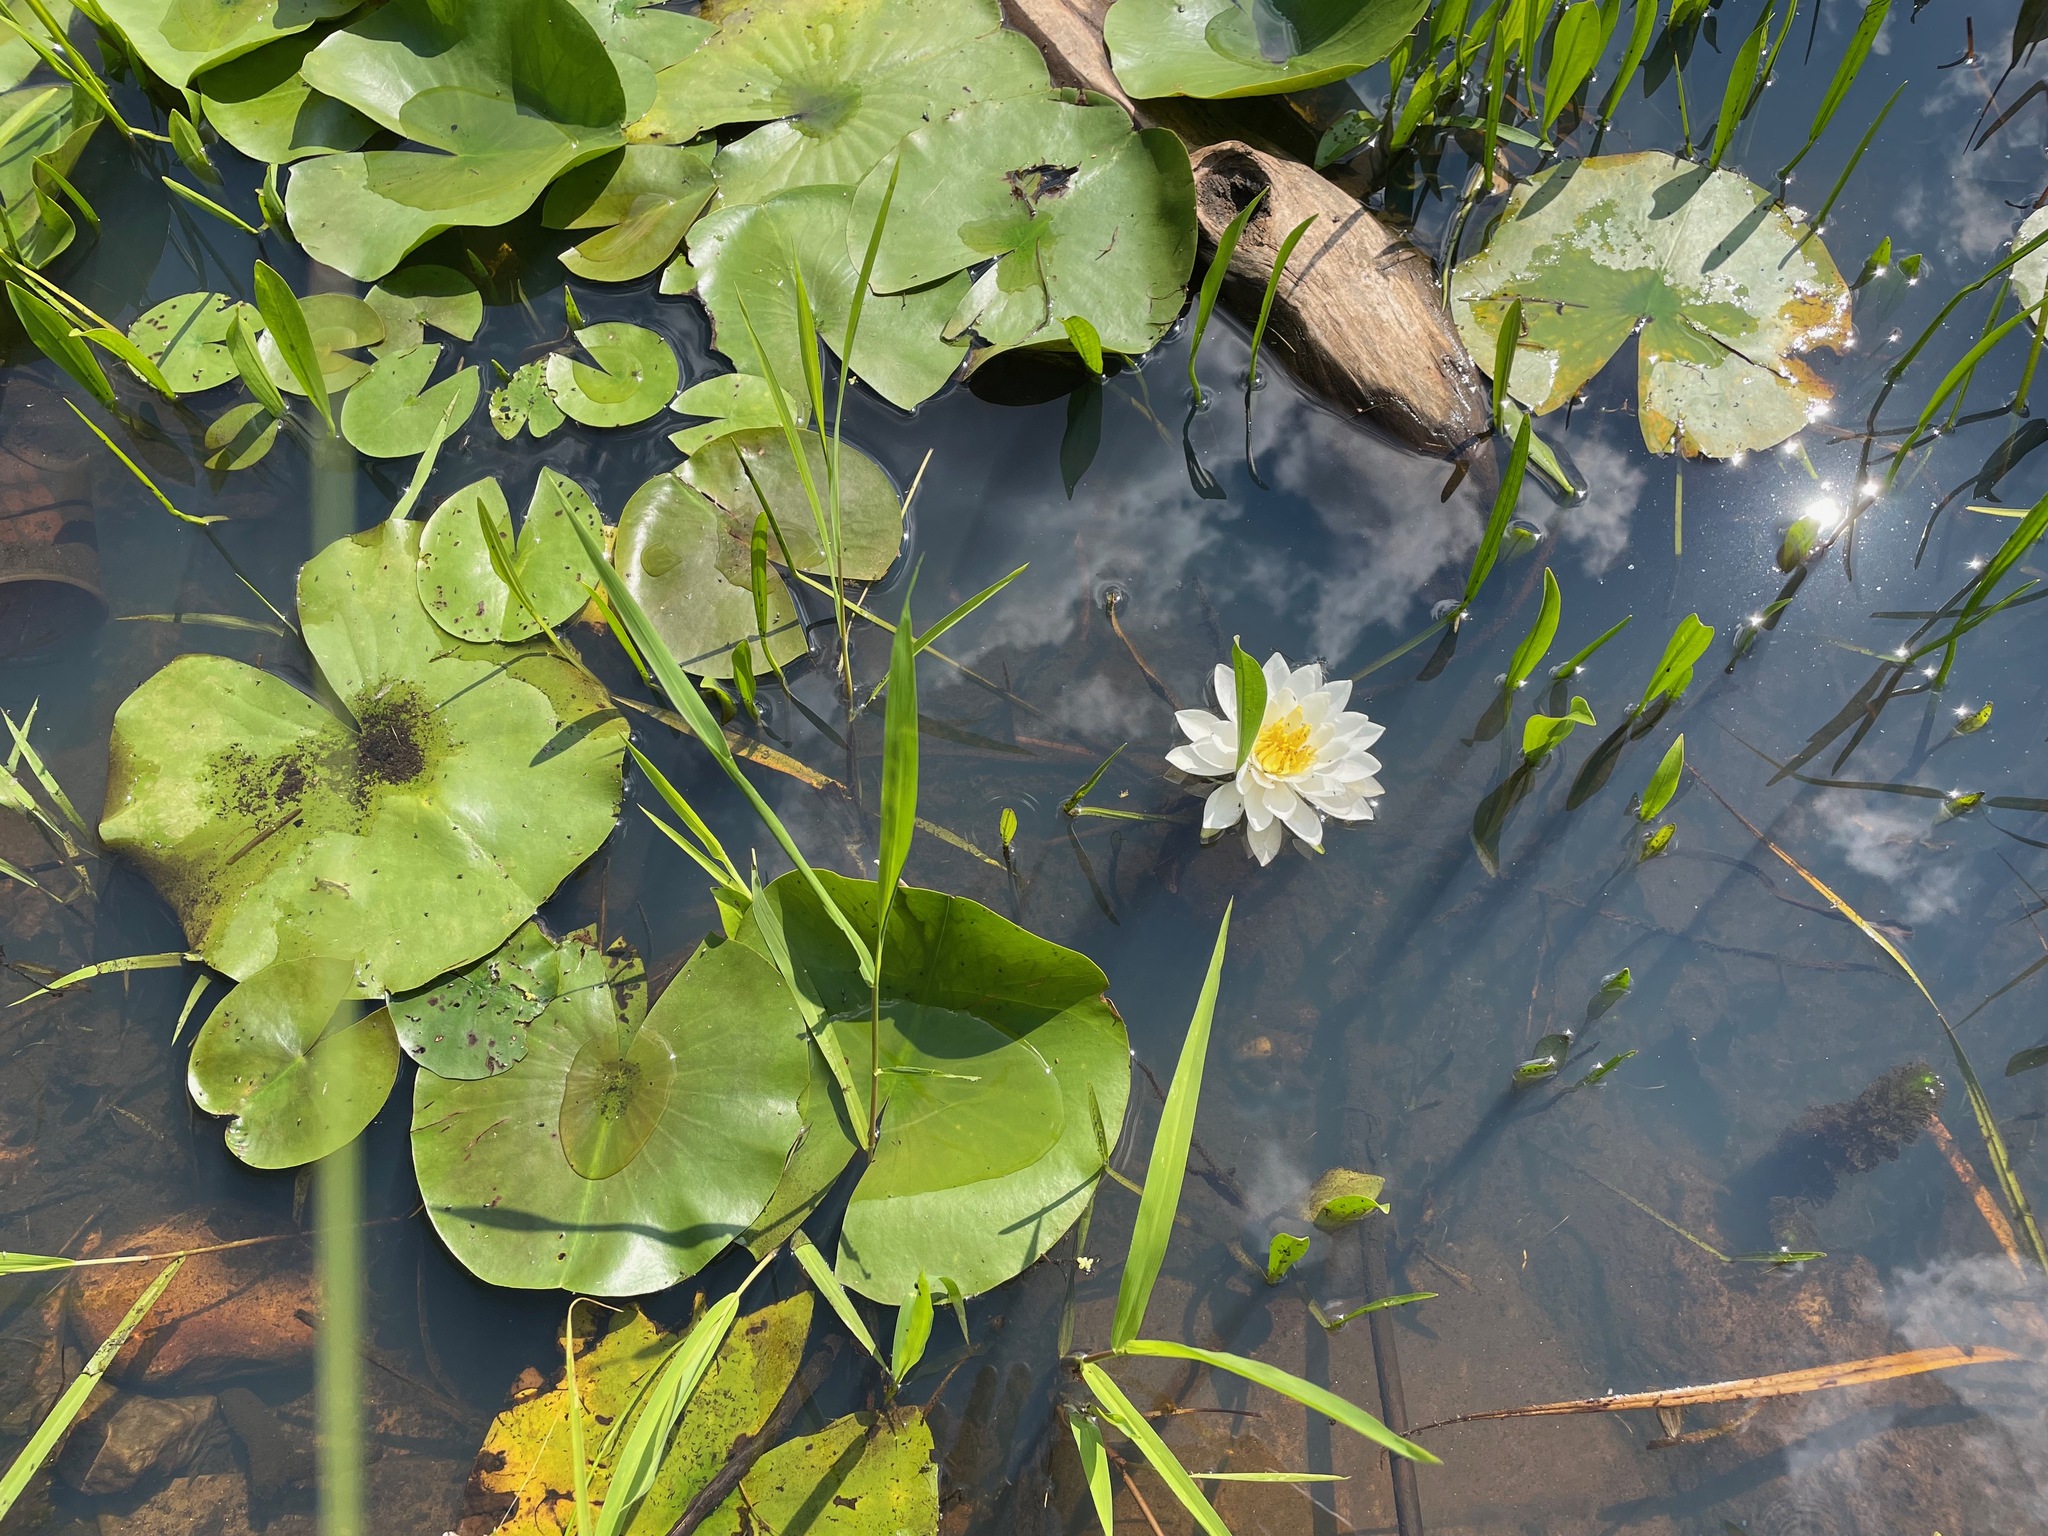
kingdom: Plantae
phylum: Tracheophyta
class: Magnoliopsida
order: Nymphaeales
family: Nymphaeaceae
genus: Nymphaea
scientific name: Nymphaea odorata
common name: Fragrant water-lily
